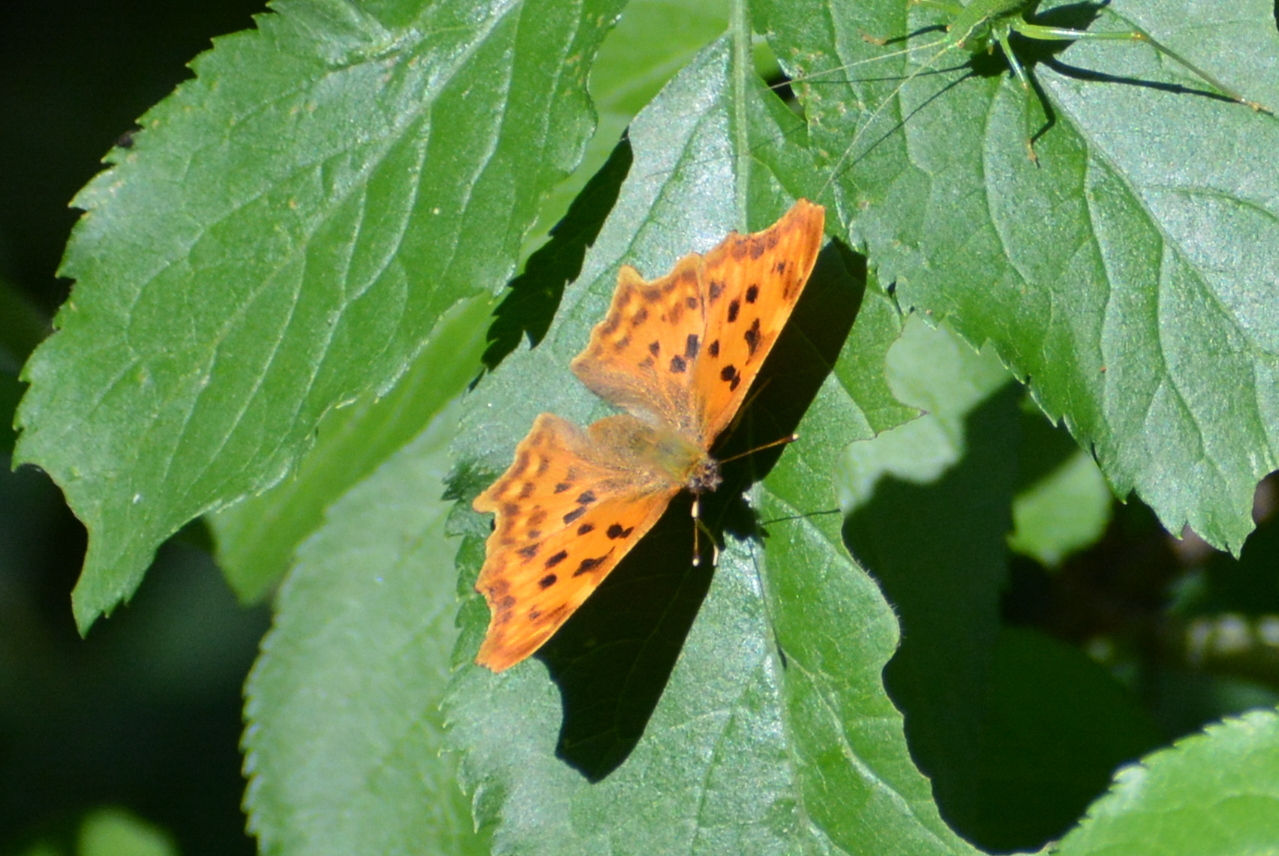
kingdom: Animalia
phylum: Arthropoda
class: Insecta
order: Lepidoptera
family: Nymphalidae
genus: Polygonia
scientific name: Polygonia c-album
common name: Comma
